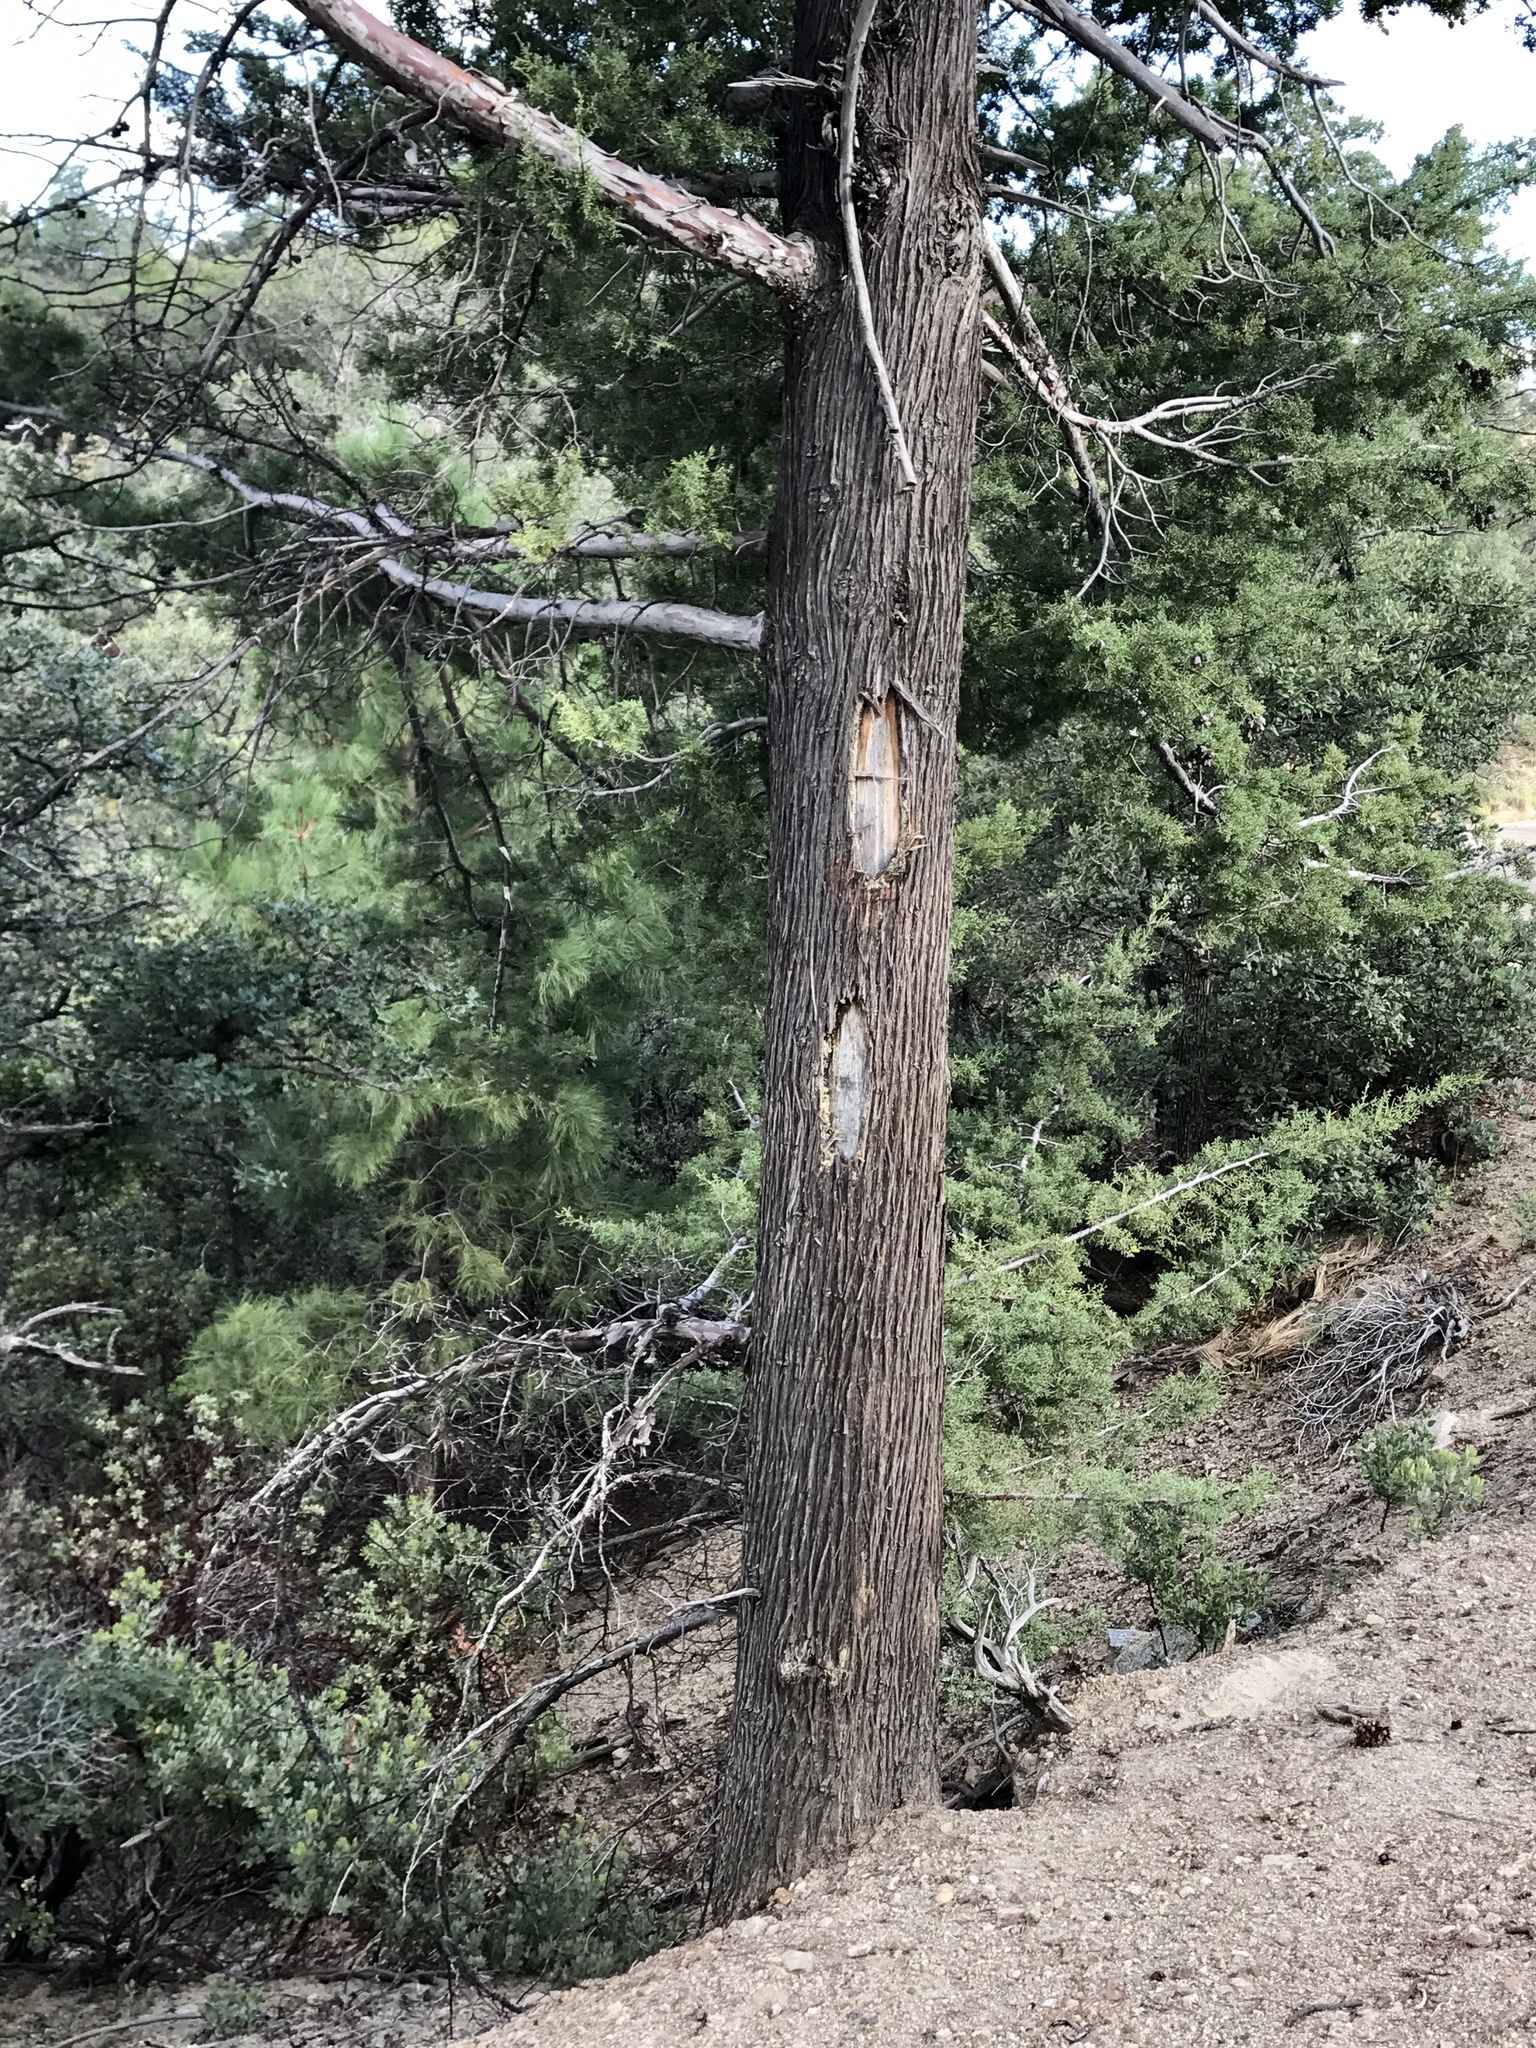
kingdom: Plantae
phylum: Tracheophyta
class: Pinopsida
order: Pinales
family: Cupressaceae
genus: Cupressus
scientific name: Cupressus arizonica
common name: Arizona cypress
